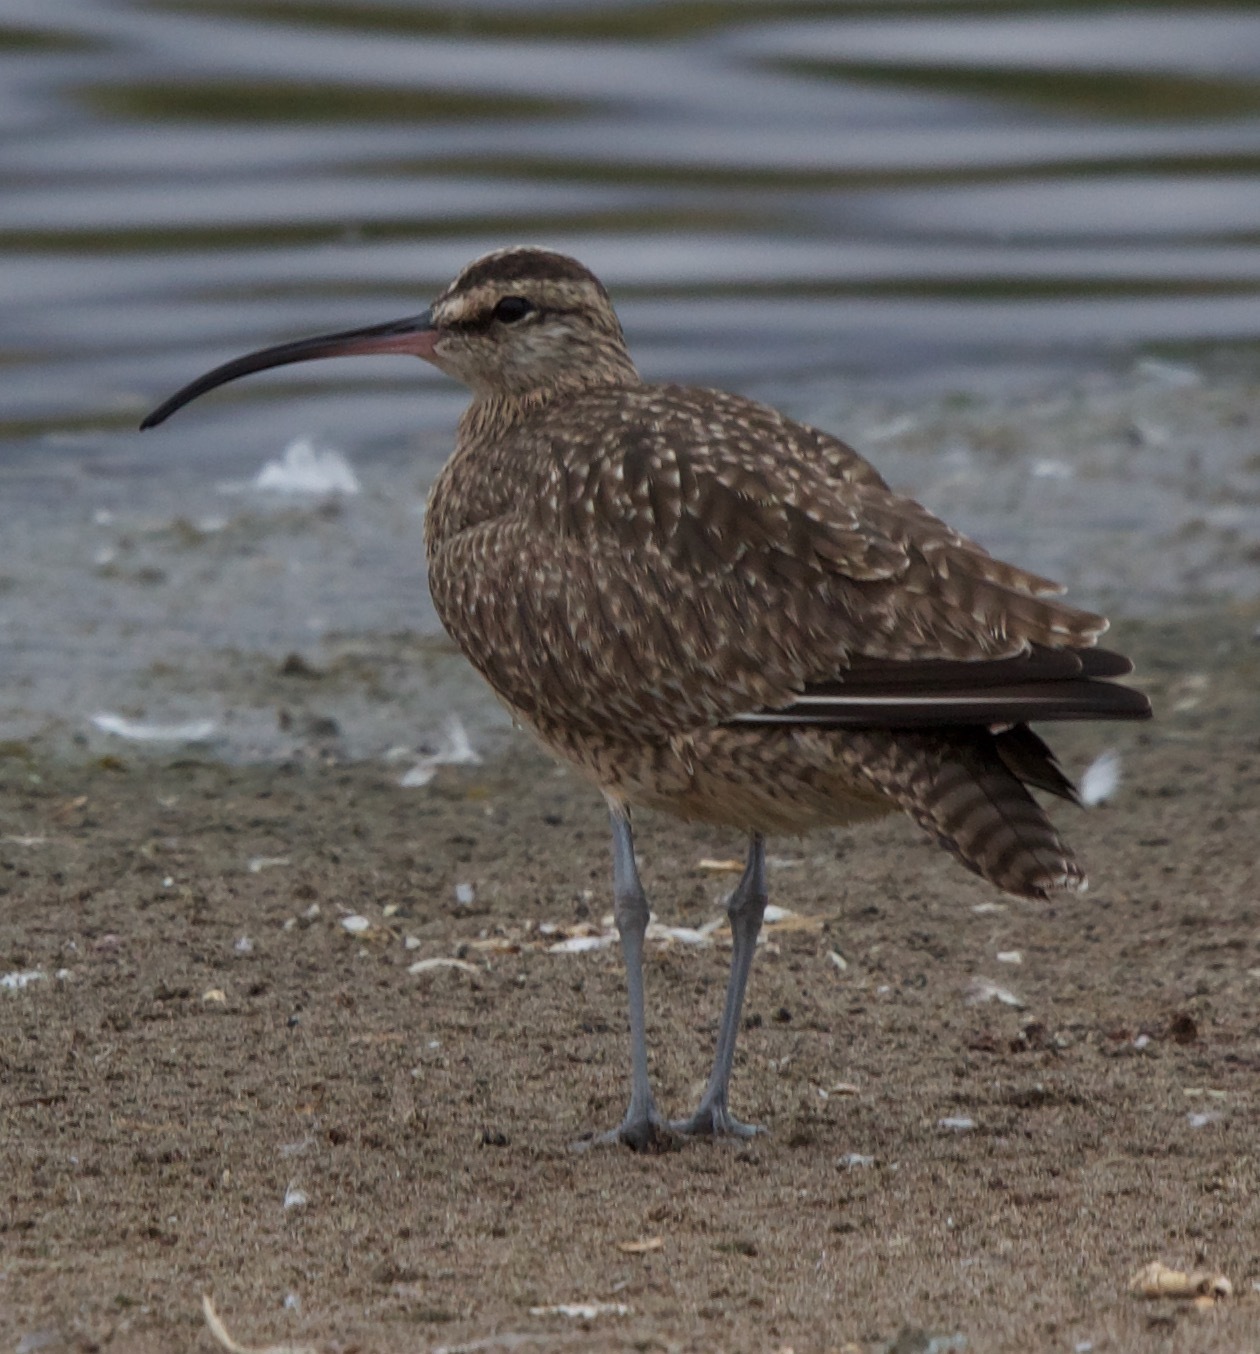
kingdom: Animalia
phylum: Chordata
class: Aves
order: Charadriiformes
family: Scolopacidae
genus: Numenius
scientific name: Numenius phaeopus
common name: Whimbrel
